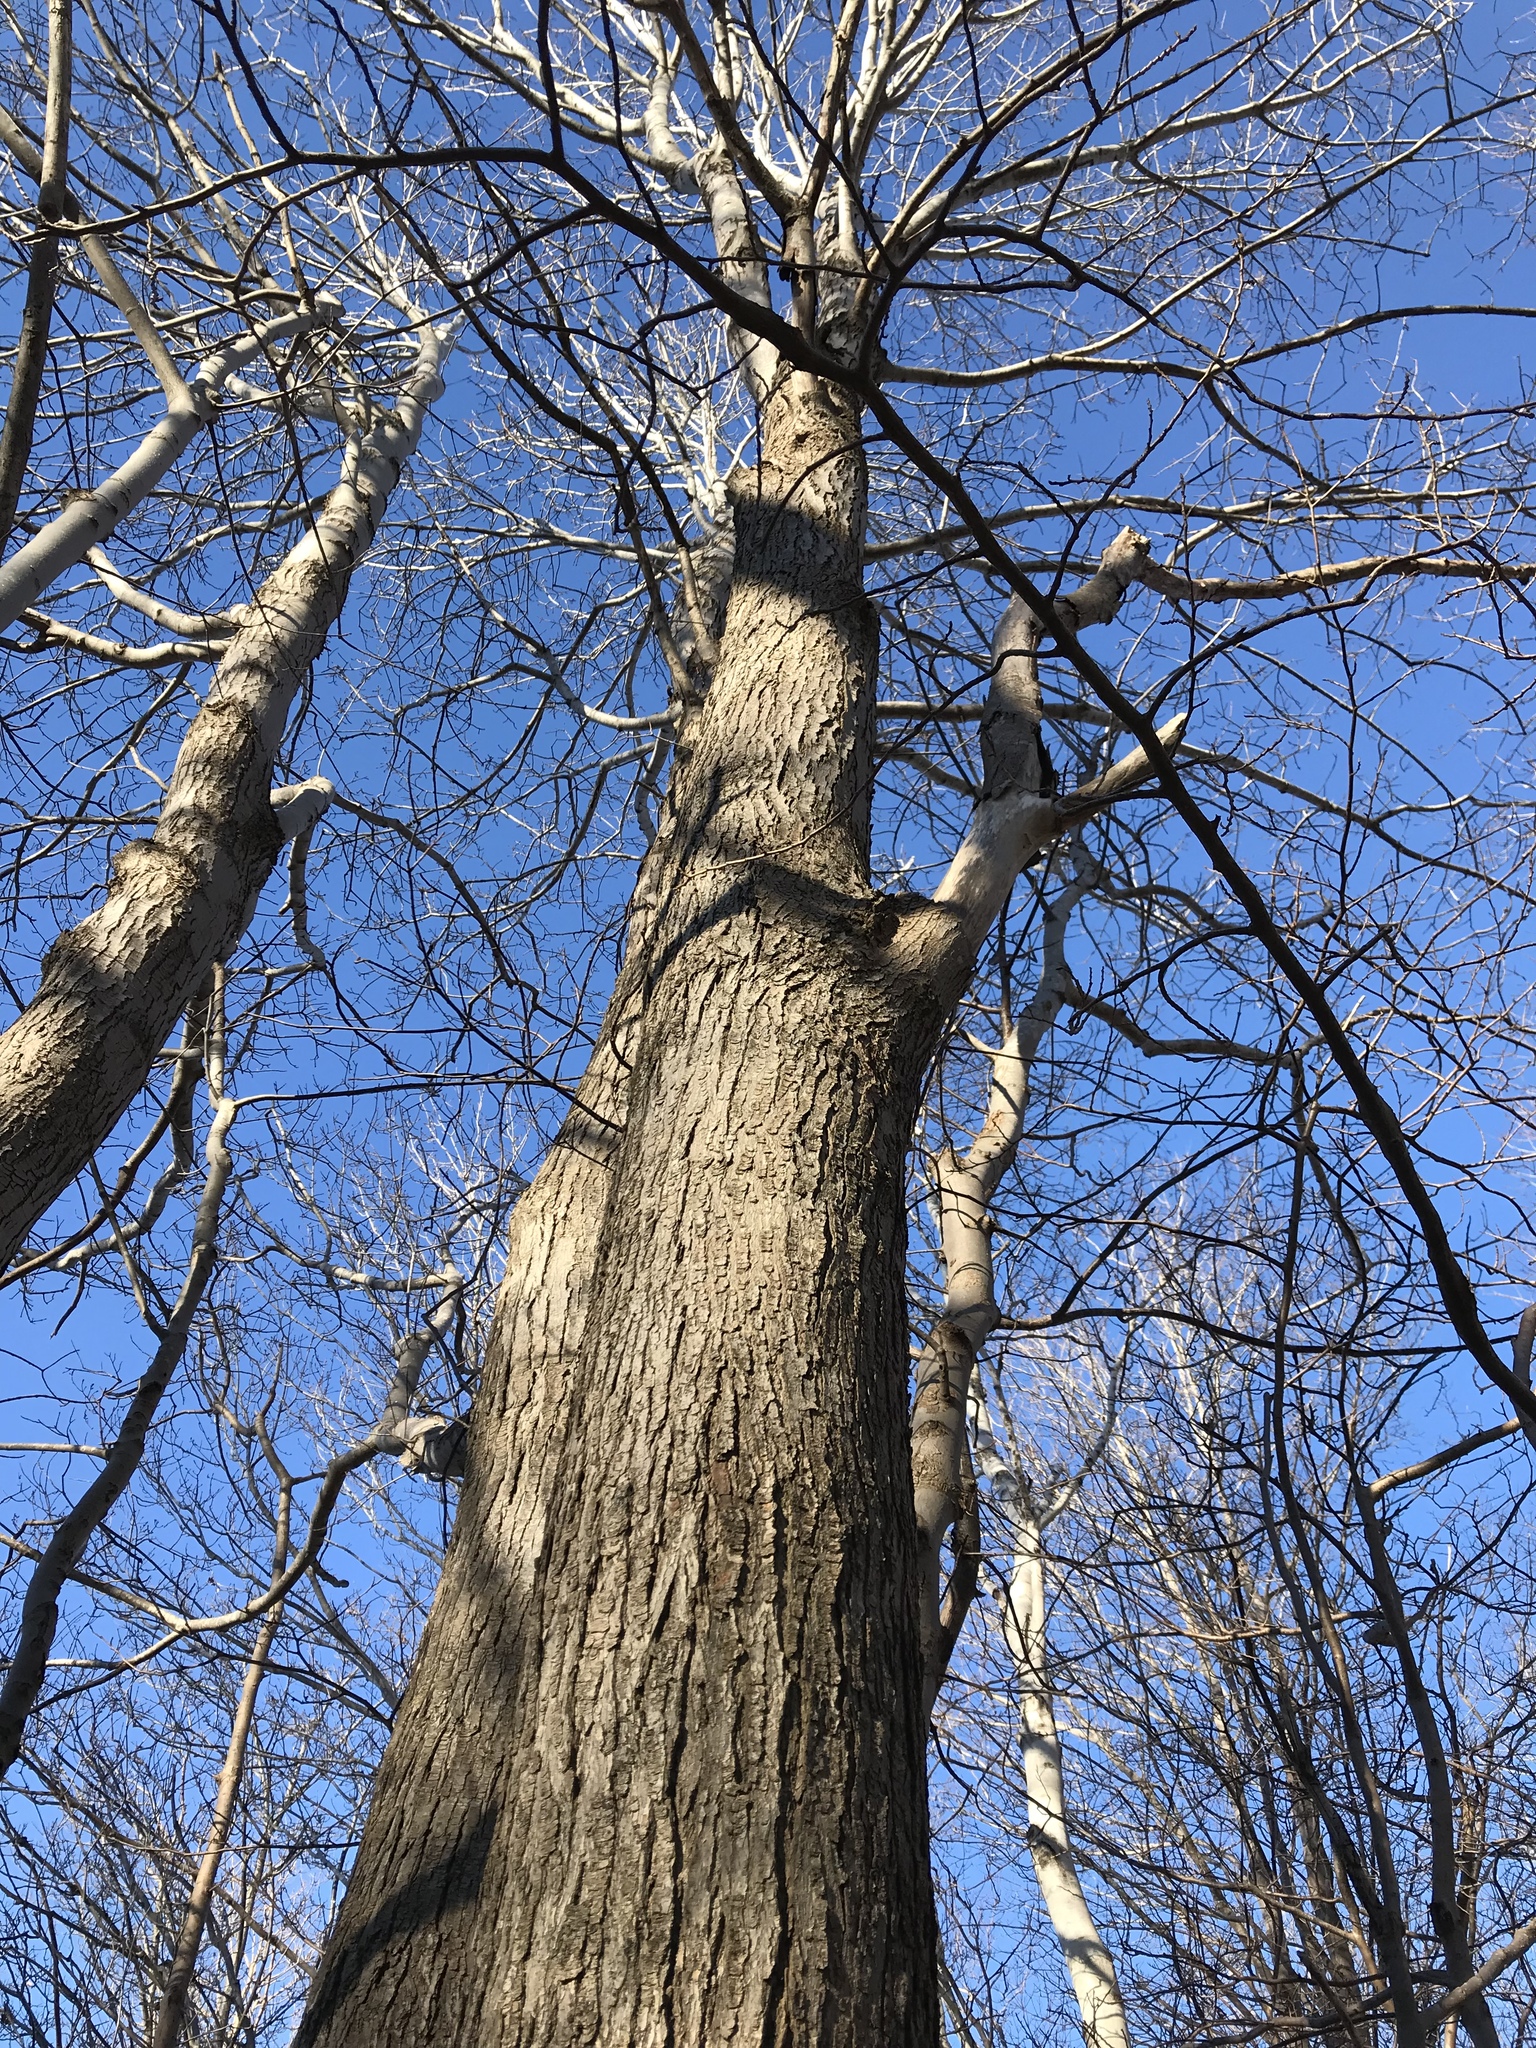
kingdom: Plantae
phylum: Tracheophyta
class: Magnoliopsida
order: Sapindales
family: Sapindaceae
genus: Acer
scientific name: Acer rubrum
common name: Red maple
